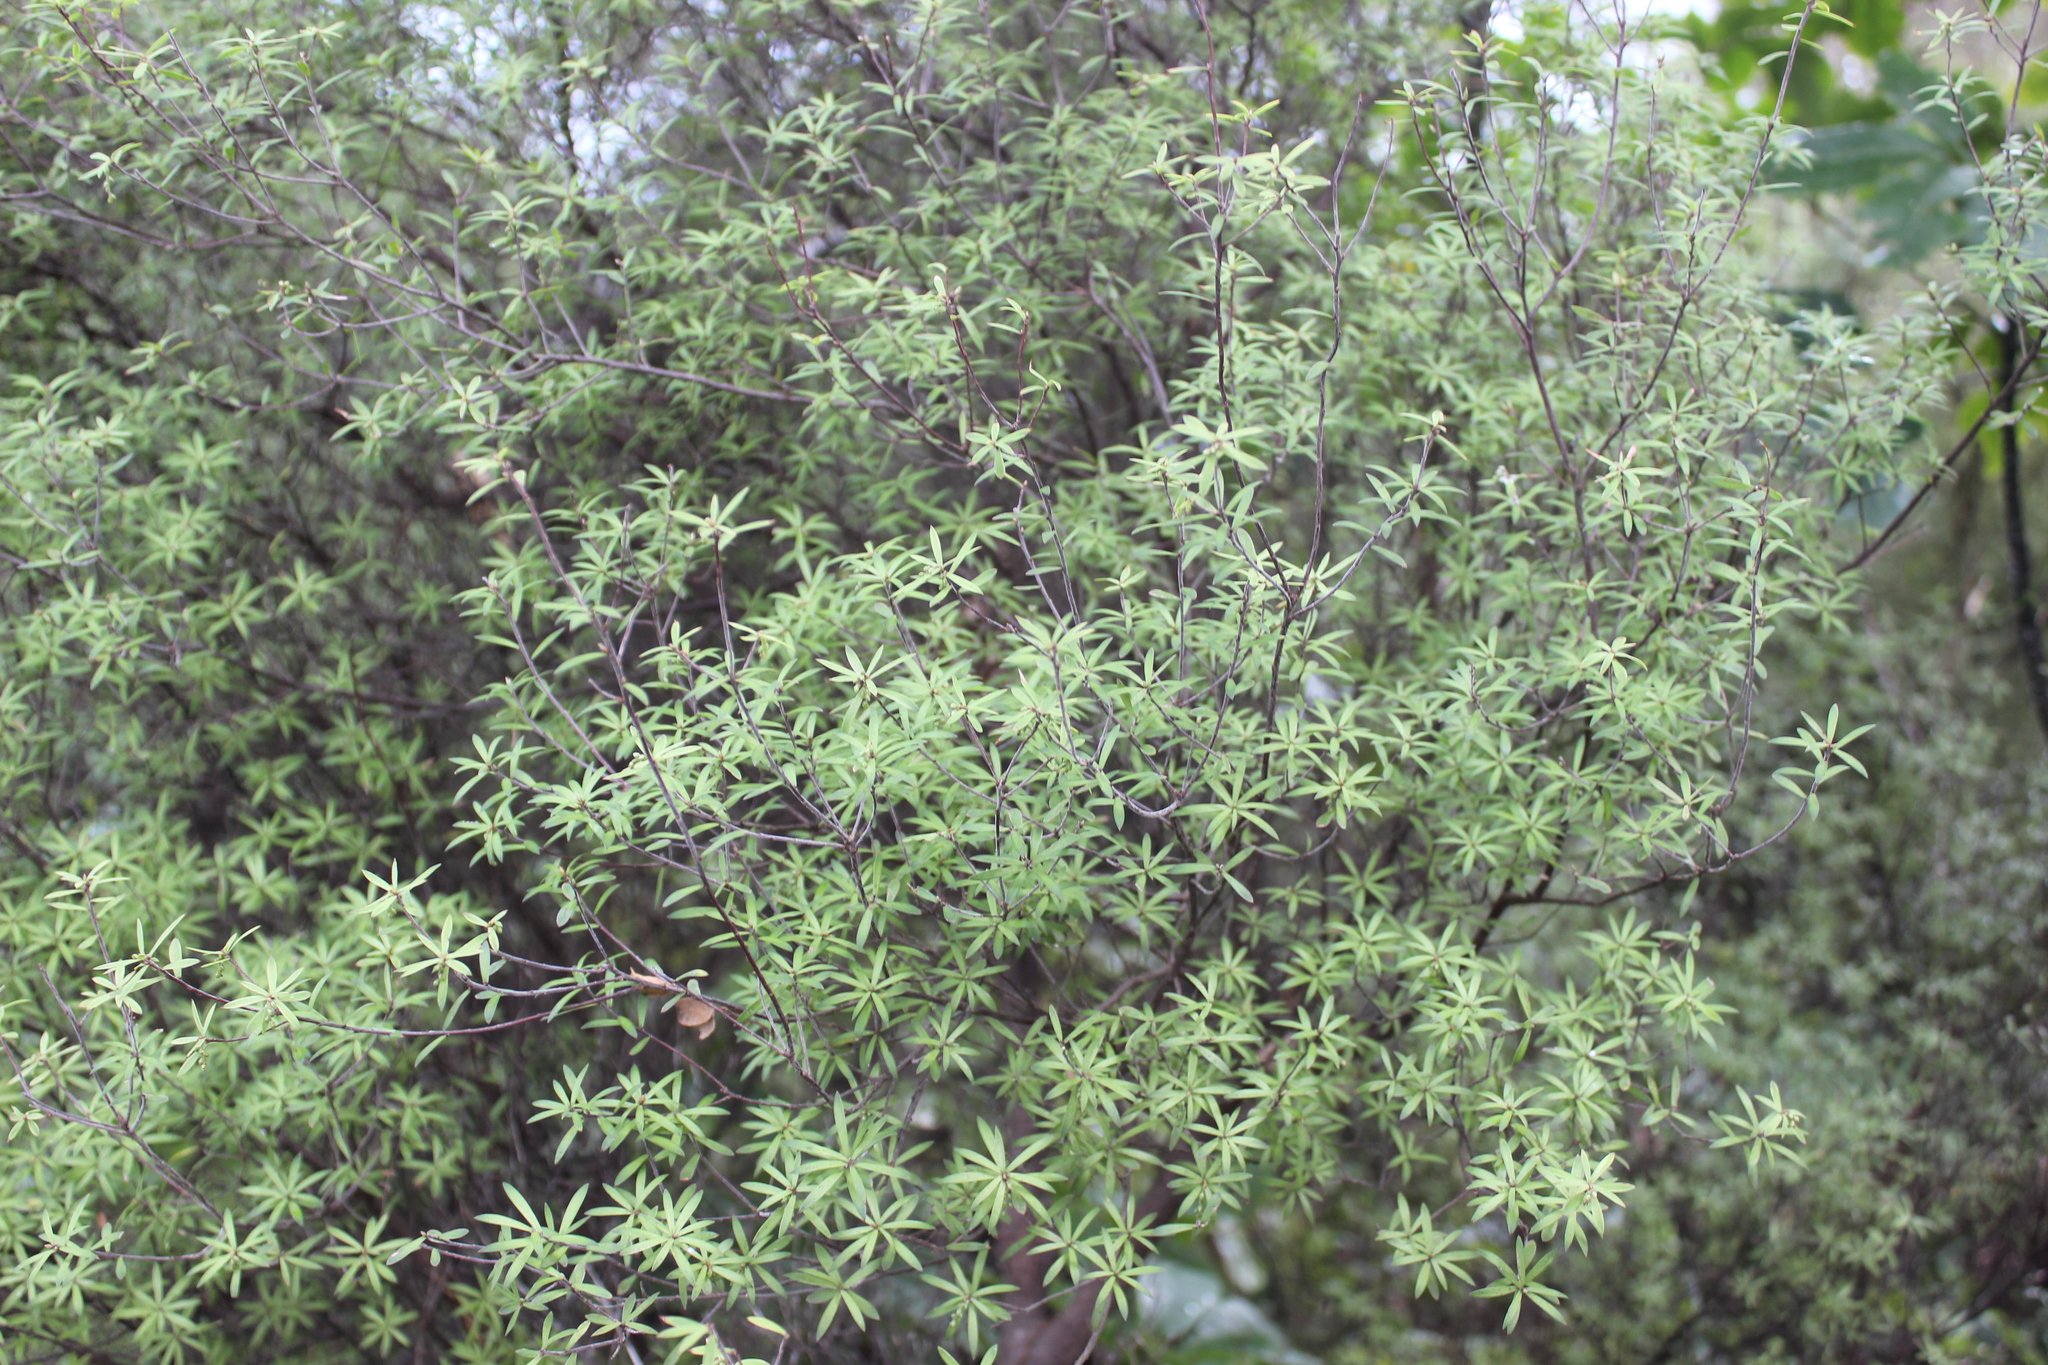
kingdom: Plantae
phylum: Tracheophyta
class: Magnoliopsida
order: Ericales
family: Ericaceae
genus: Leucopogon
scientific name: Leucopogon fasciculatus
